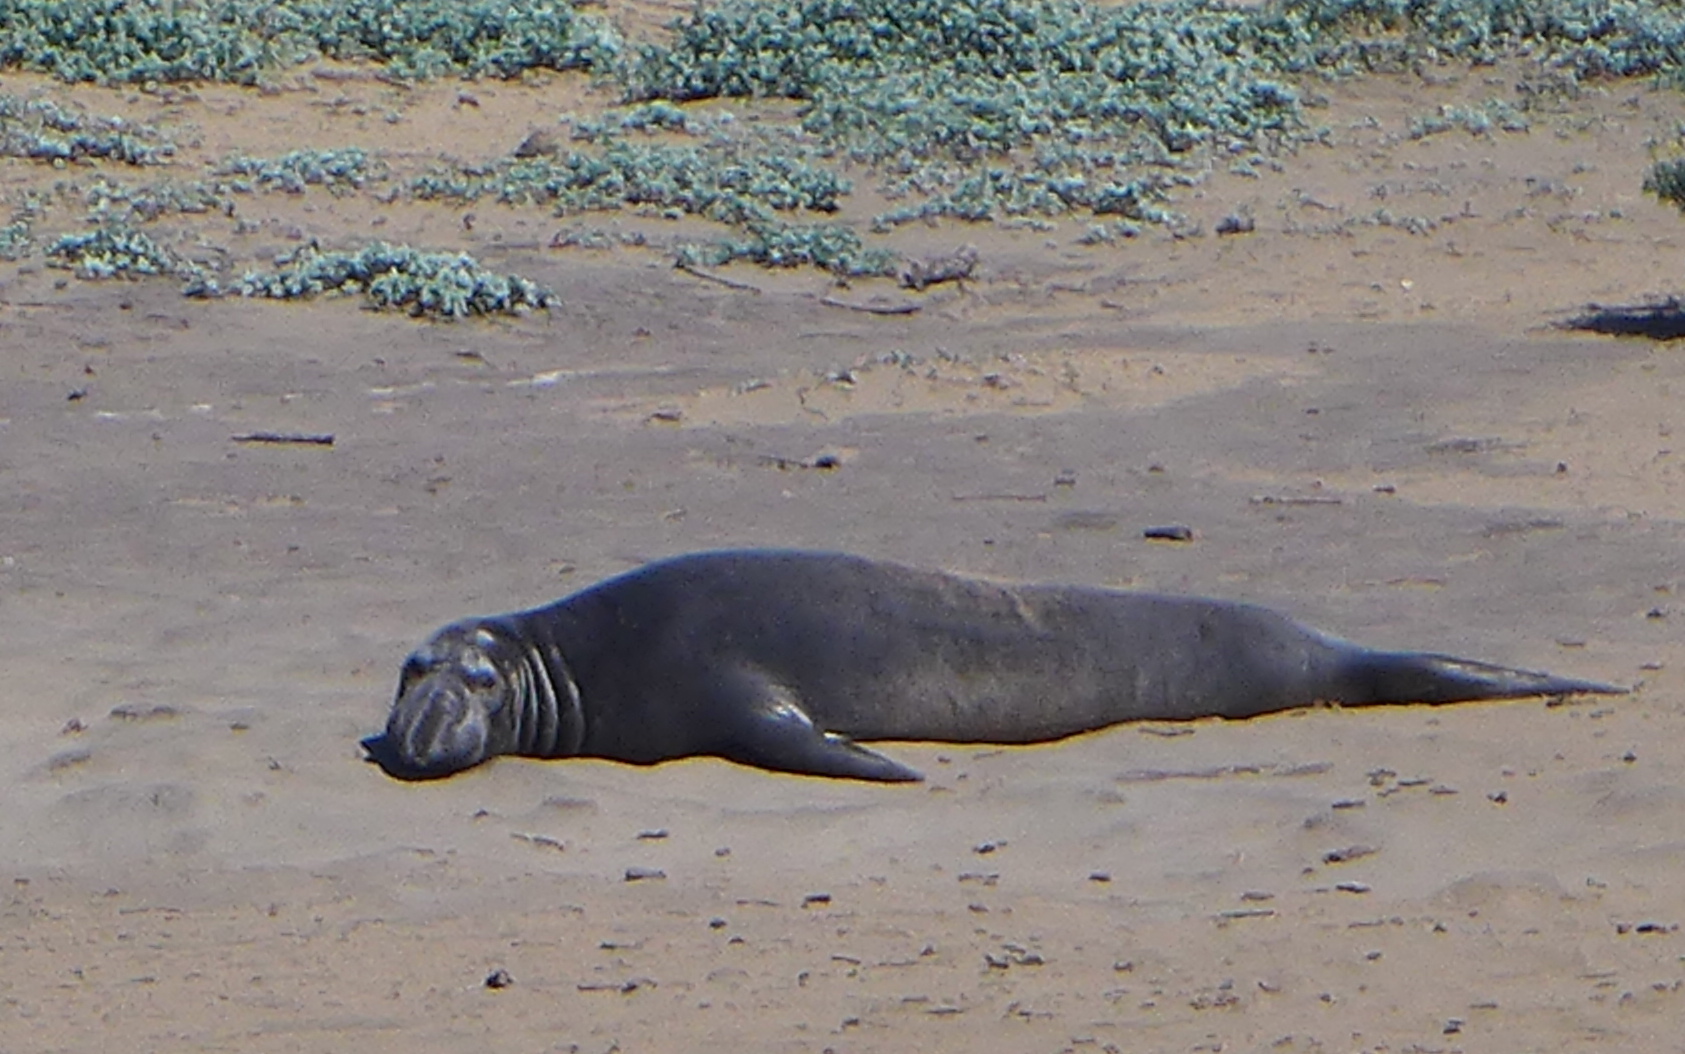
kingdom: Animalia
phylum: Chordata
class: Mammalia
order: Carnivora
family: Phocidae
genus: Mirounga
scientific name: Mirounga angustirostris
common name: Northern elephant seal
